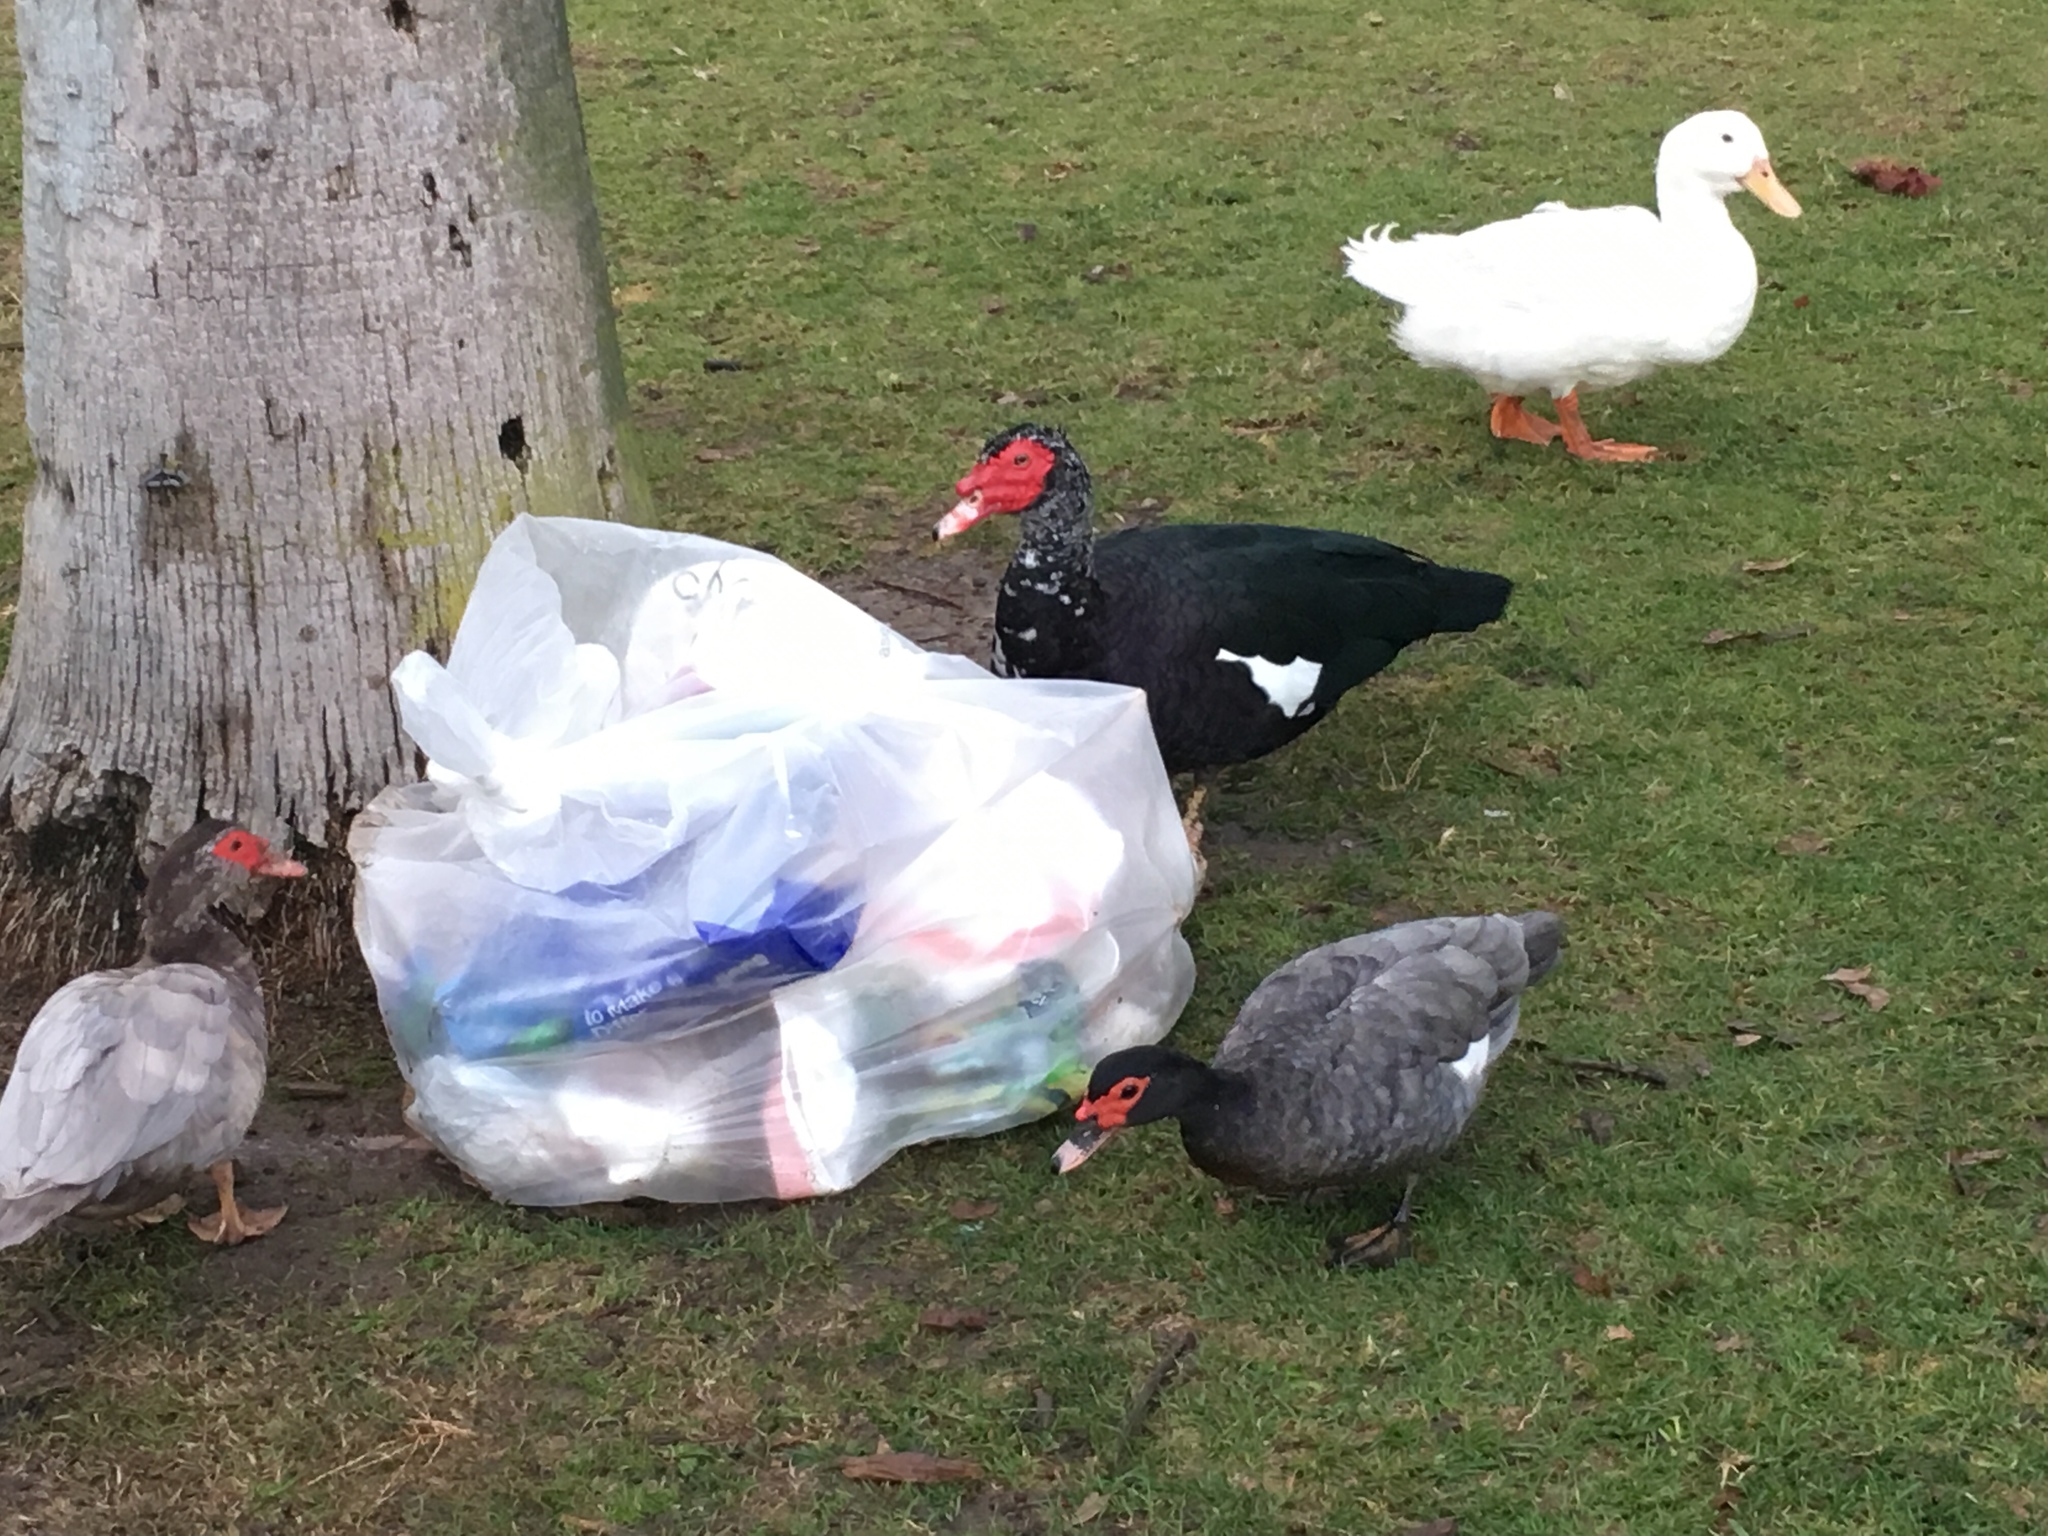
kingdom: Animalia
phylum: Chordata
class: Aves
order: Anseriformes
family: Anatidae
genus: Cairina
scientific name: Cairina moschata
